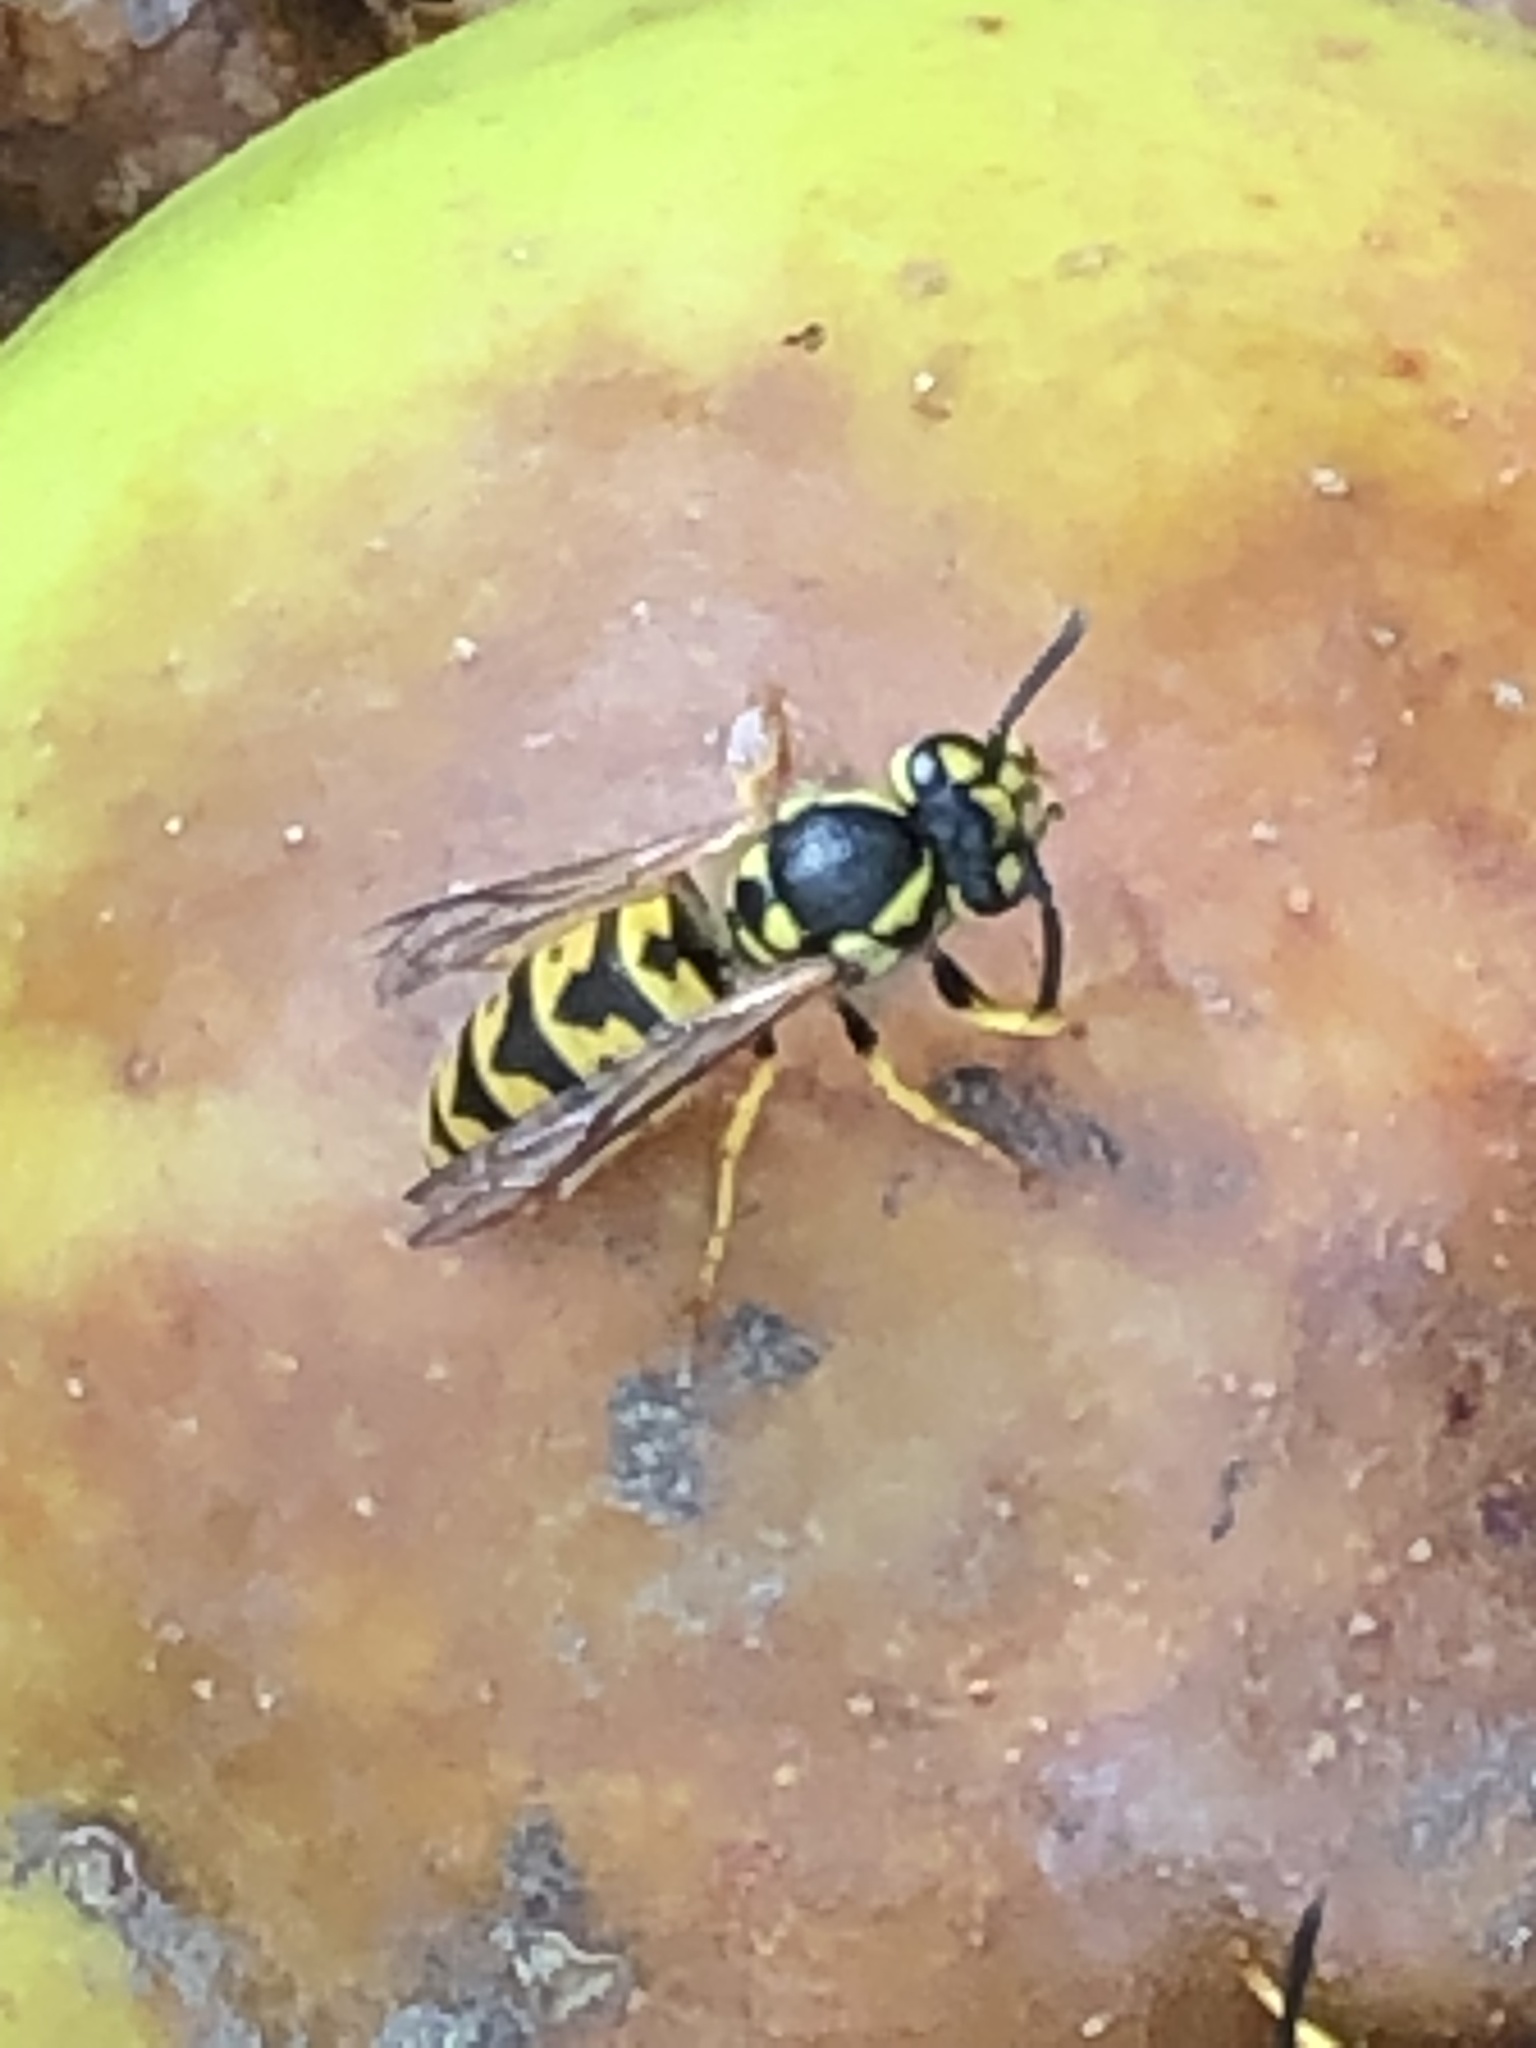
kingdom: Animalia
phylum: Arthropoda
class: Insecta
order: Hymenoptera
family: Vespidae
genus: Vespula
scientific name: Vespula germanica
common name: German wasp
